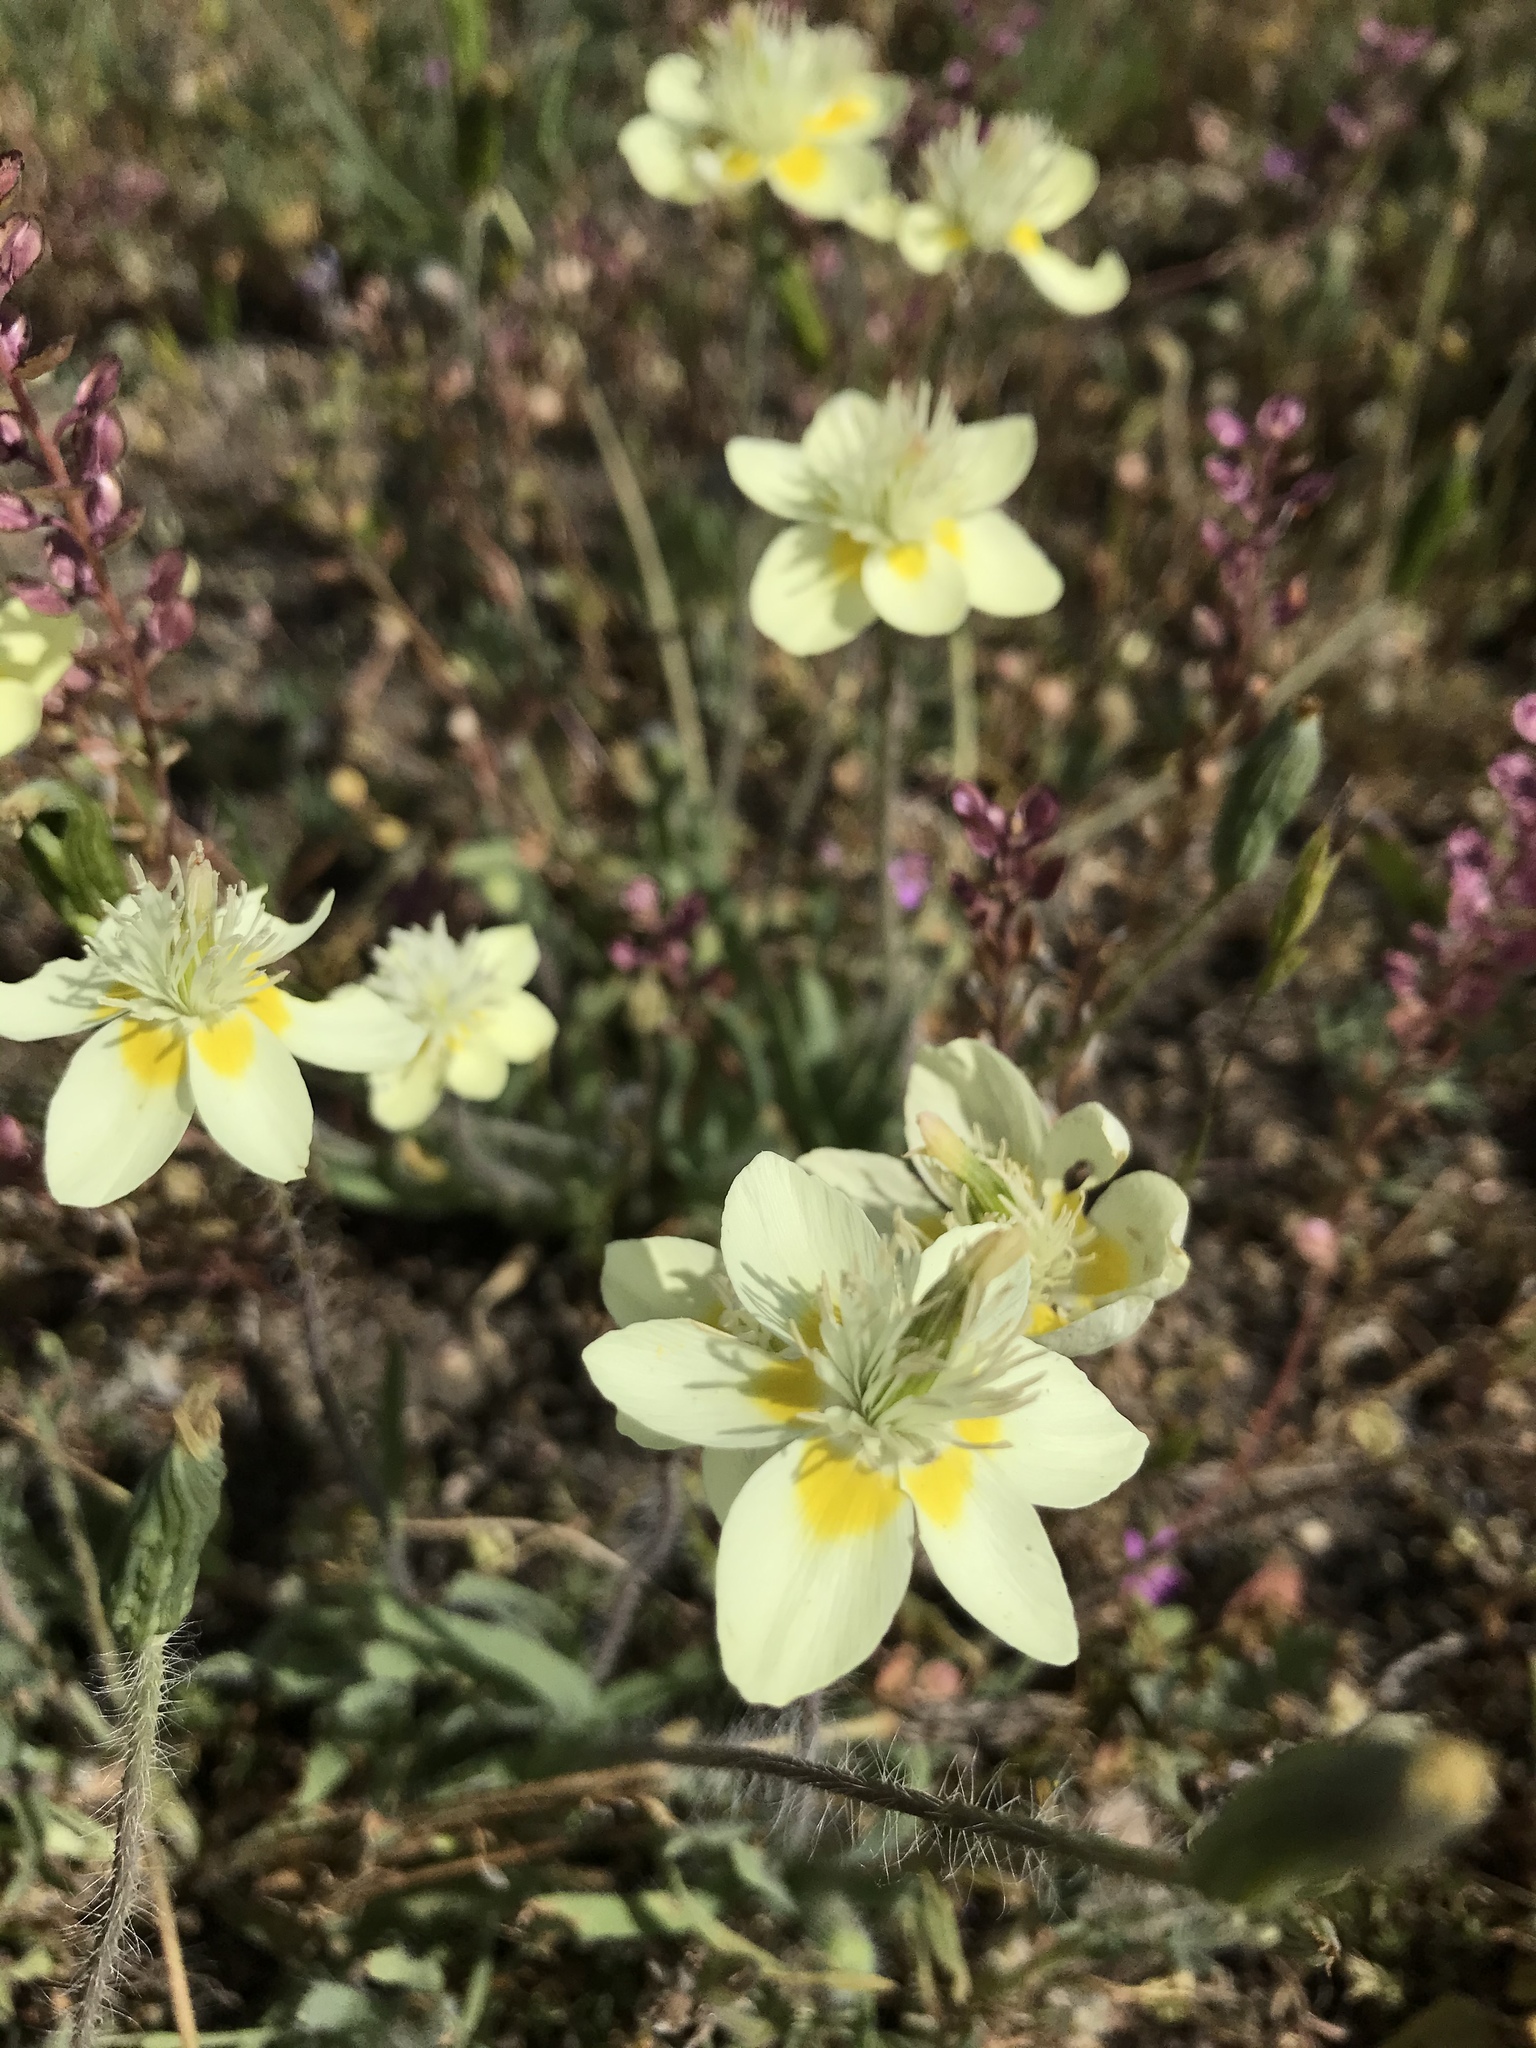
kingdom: Plantae
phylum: Tracheophyta
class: Magnoliopsida
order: Ranunculales
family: Papaveraceae
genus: Platystemon
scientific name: Platystemon californicus
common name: Cream-cups
